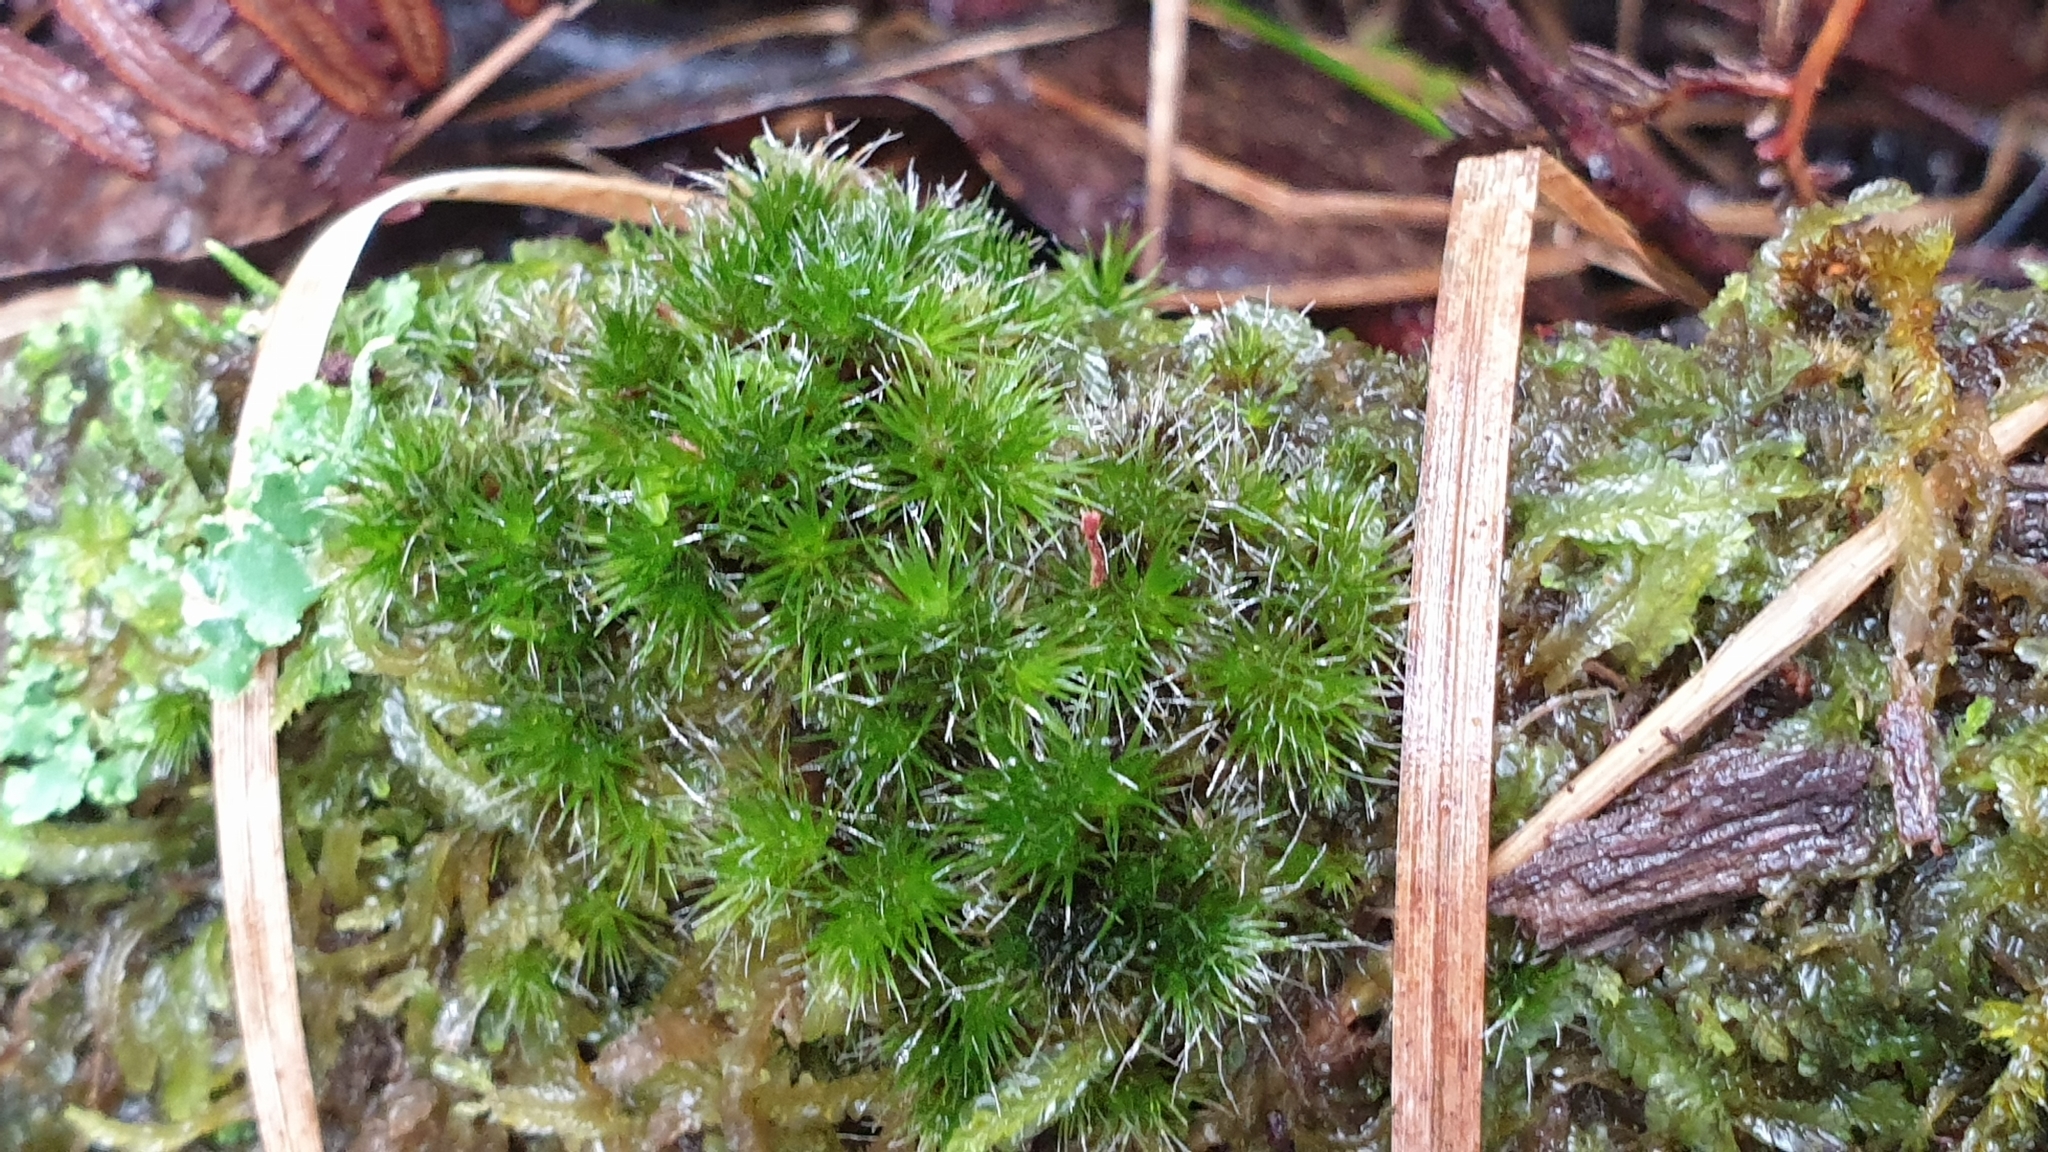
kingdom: Plantae
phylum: Bryophyta
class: Bryopsida
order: Dicranales
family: Leucobryaceae
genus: Campylopus
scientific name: Campylopus introflexus
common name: Heath star moss
